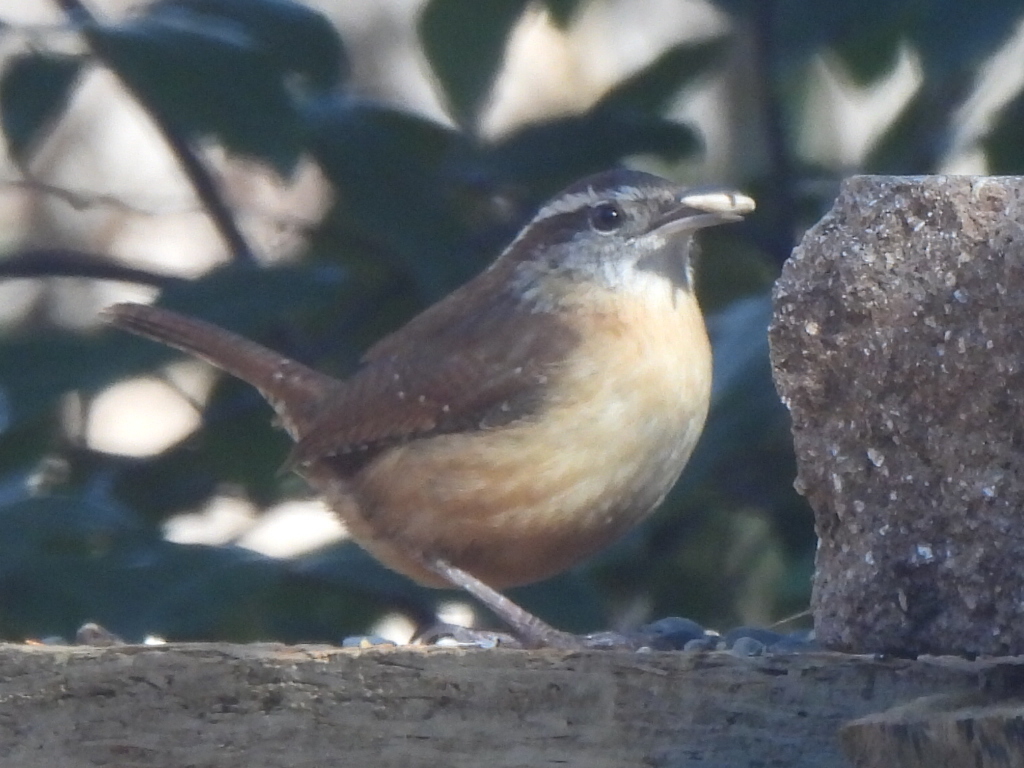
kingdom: Animalia
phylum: Chordata
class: Aves
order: Passeriformes
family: Troglodytidae
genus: Thryothorus
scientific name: Thryothorus ludovicianus
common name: Carolina wren
